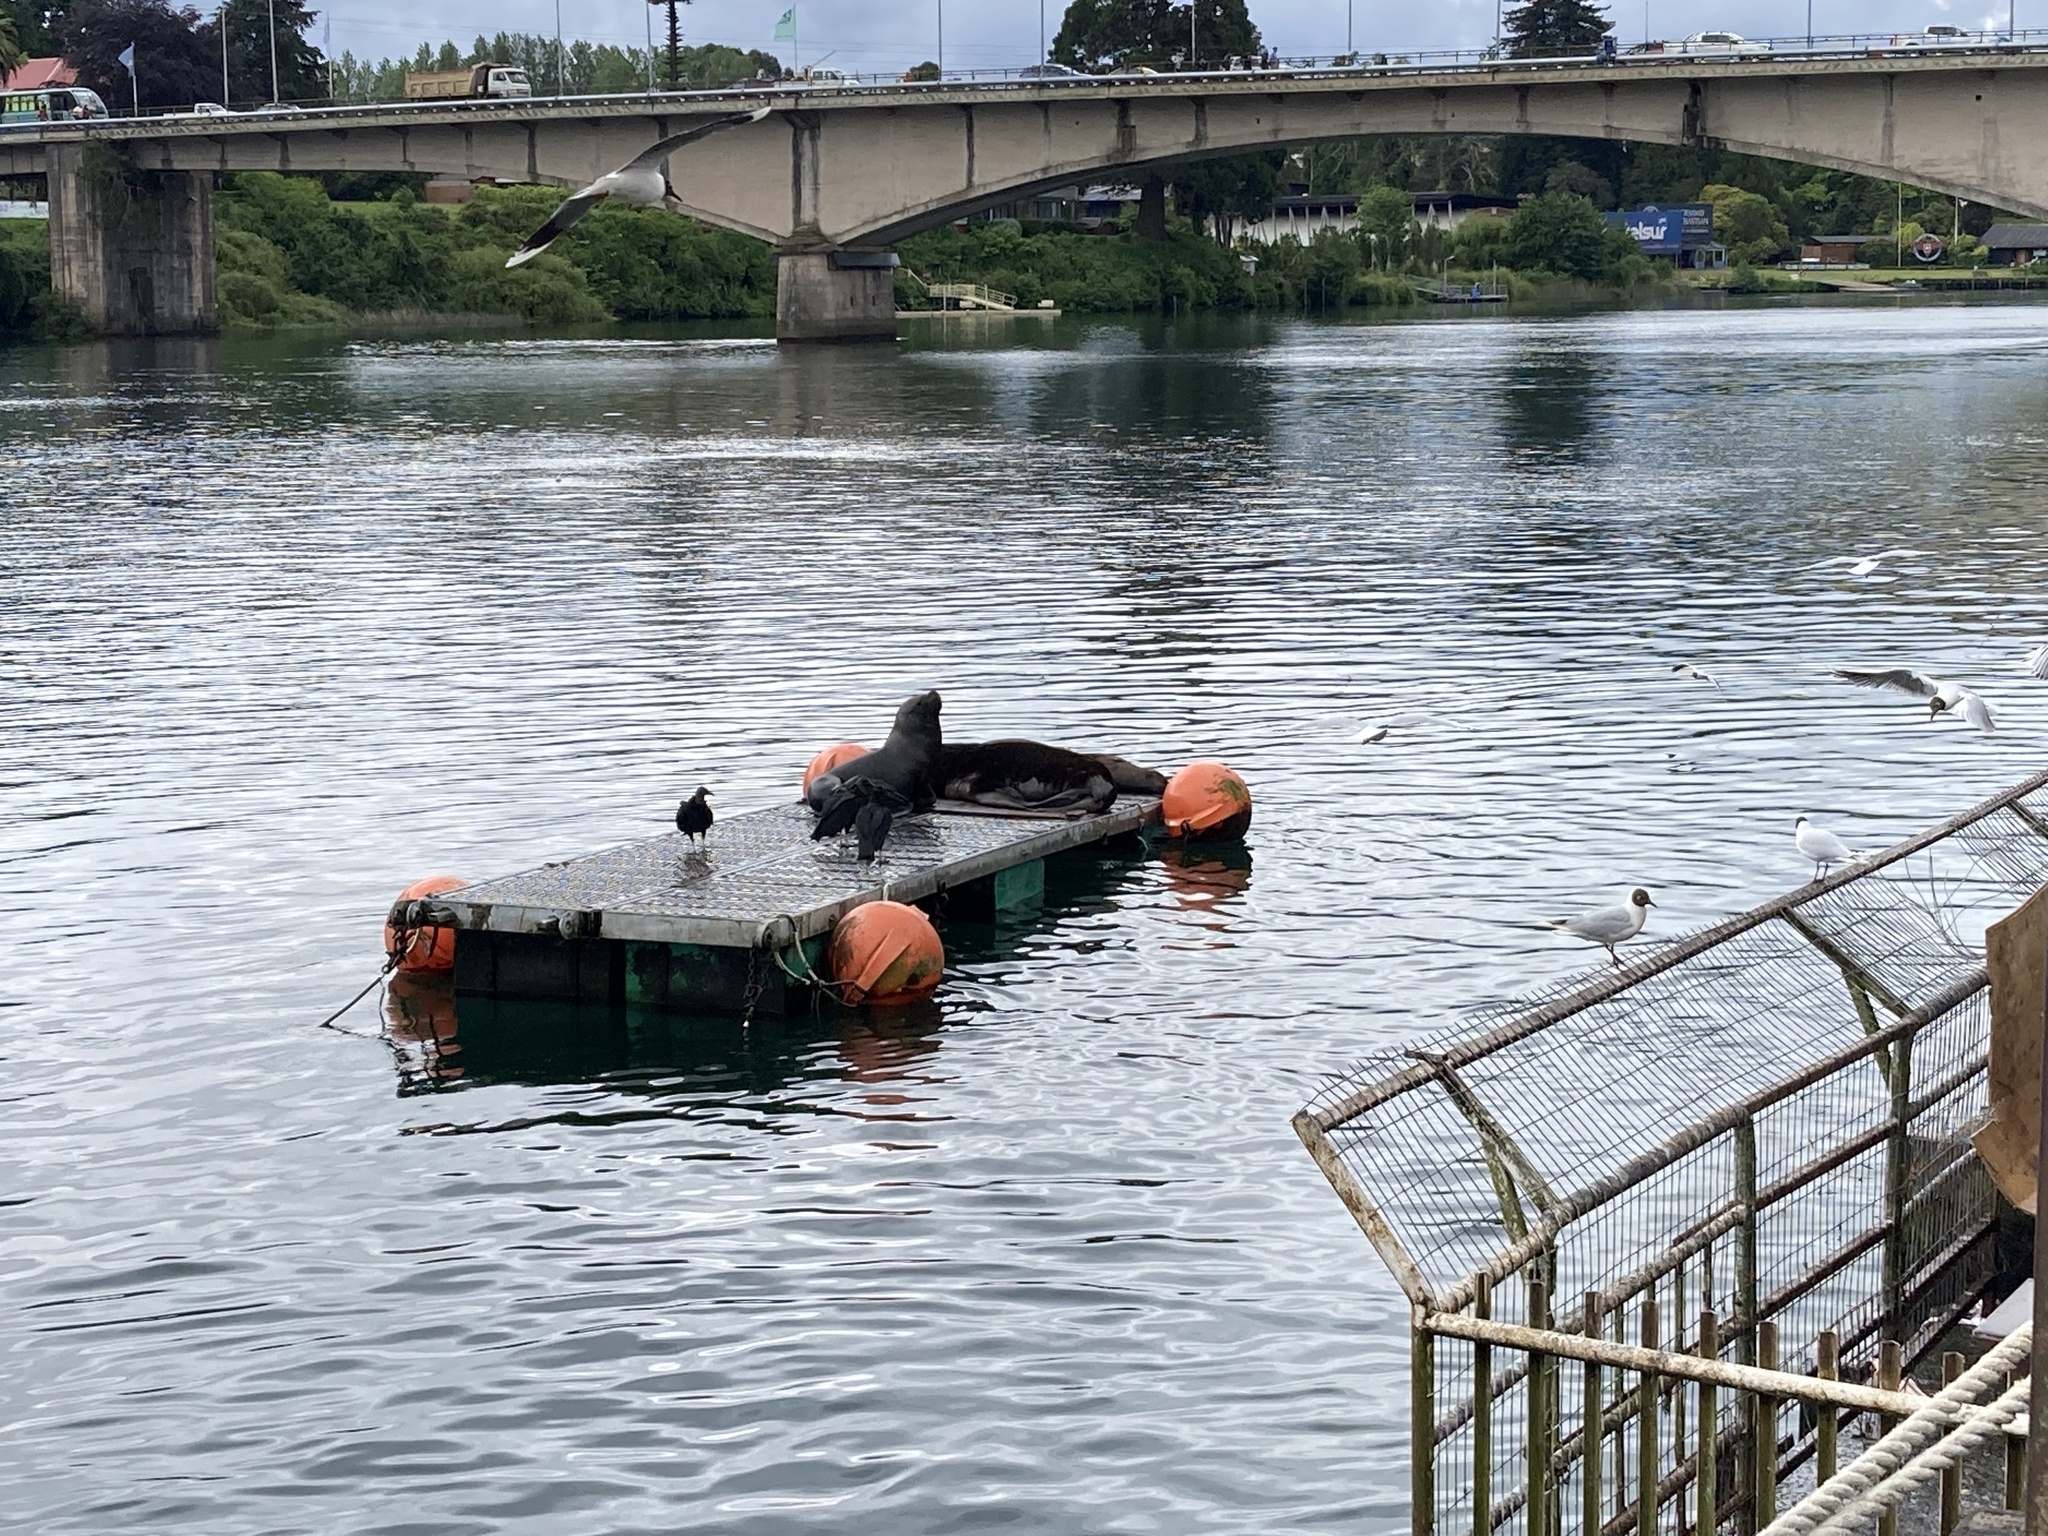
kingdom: Animalia
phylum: Chordata
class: Aves
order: Charadriiformes
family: Laridae
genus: Chroicocephalus
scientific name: Chroicocephalus maculipennis
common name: Brown-hooded gull
